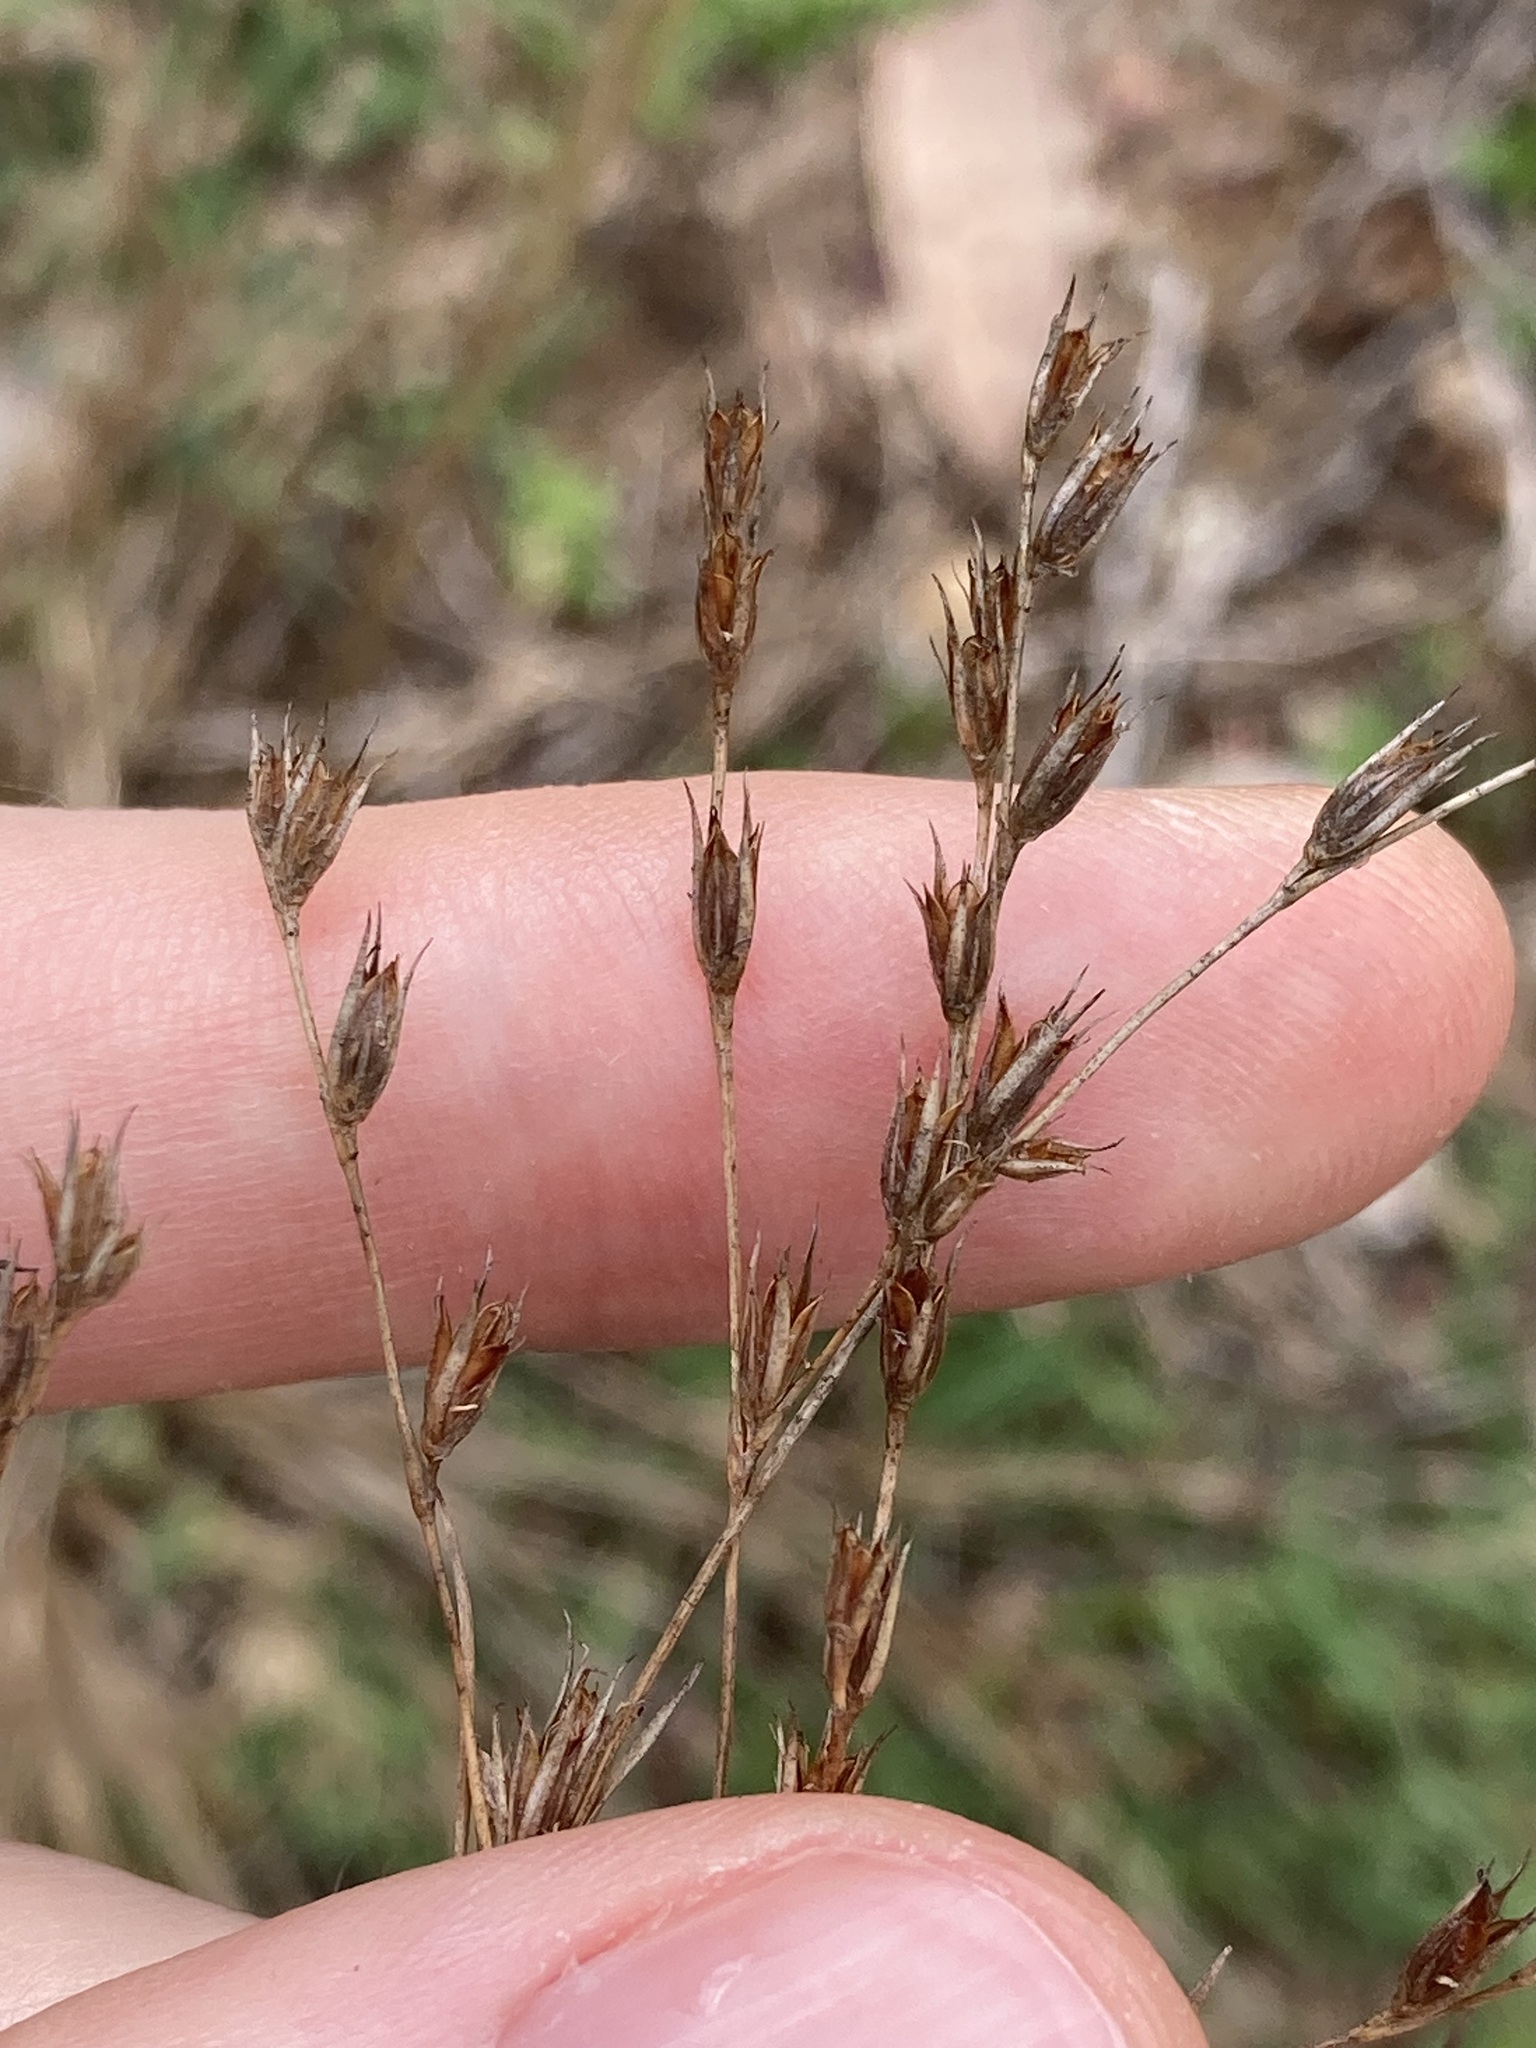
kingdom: Plantae
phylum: Tracheophyta
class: Liliopsida
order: Poales
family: Juncaceae
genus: Juncus
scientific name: Juncus bufonius
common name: Toad rush
